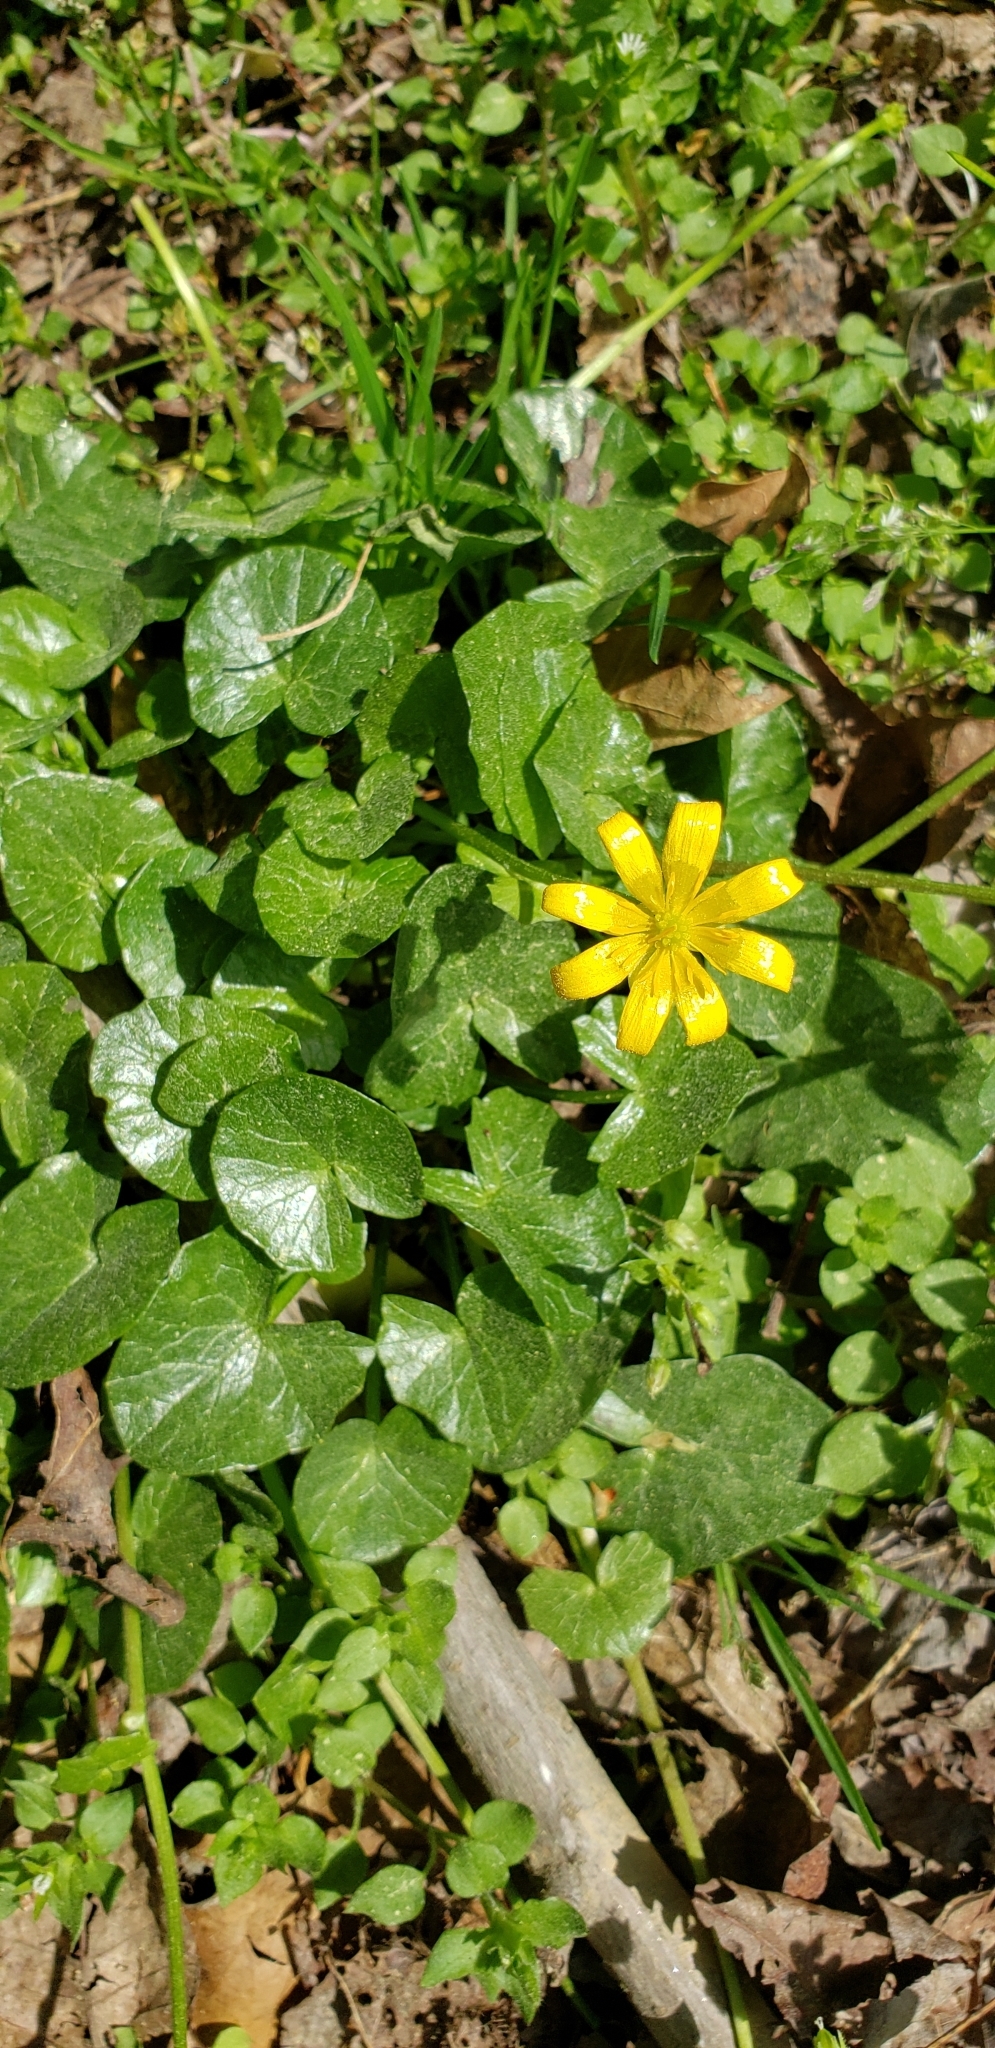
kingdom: Plantae
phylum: Tracheophyta
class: Magnoliopsida
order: Ranunculales
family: Ranunculaceae
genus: Ficaria
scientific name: Ficaria verna
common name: Lesser celandine
